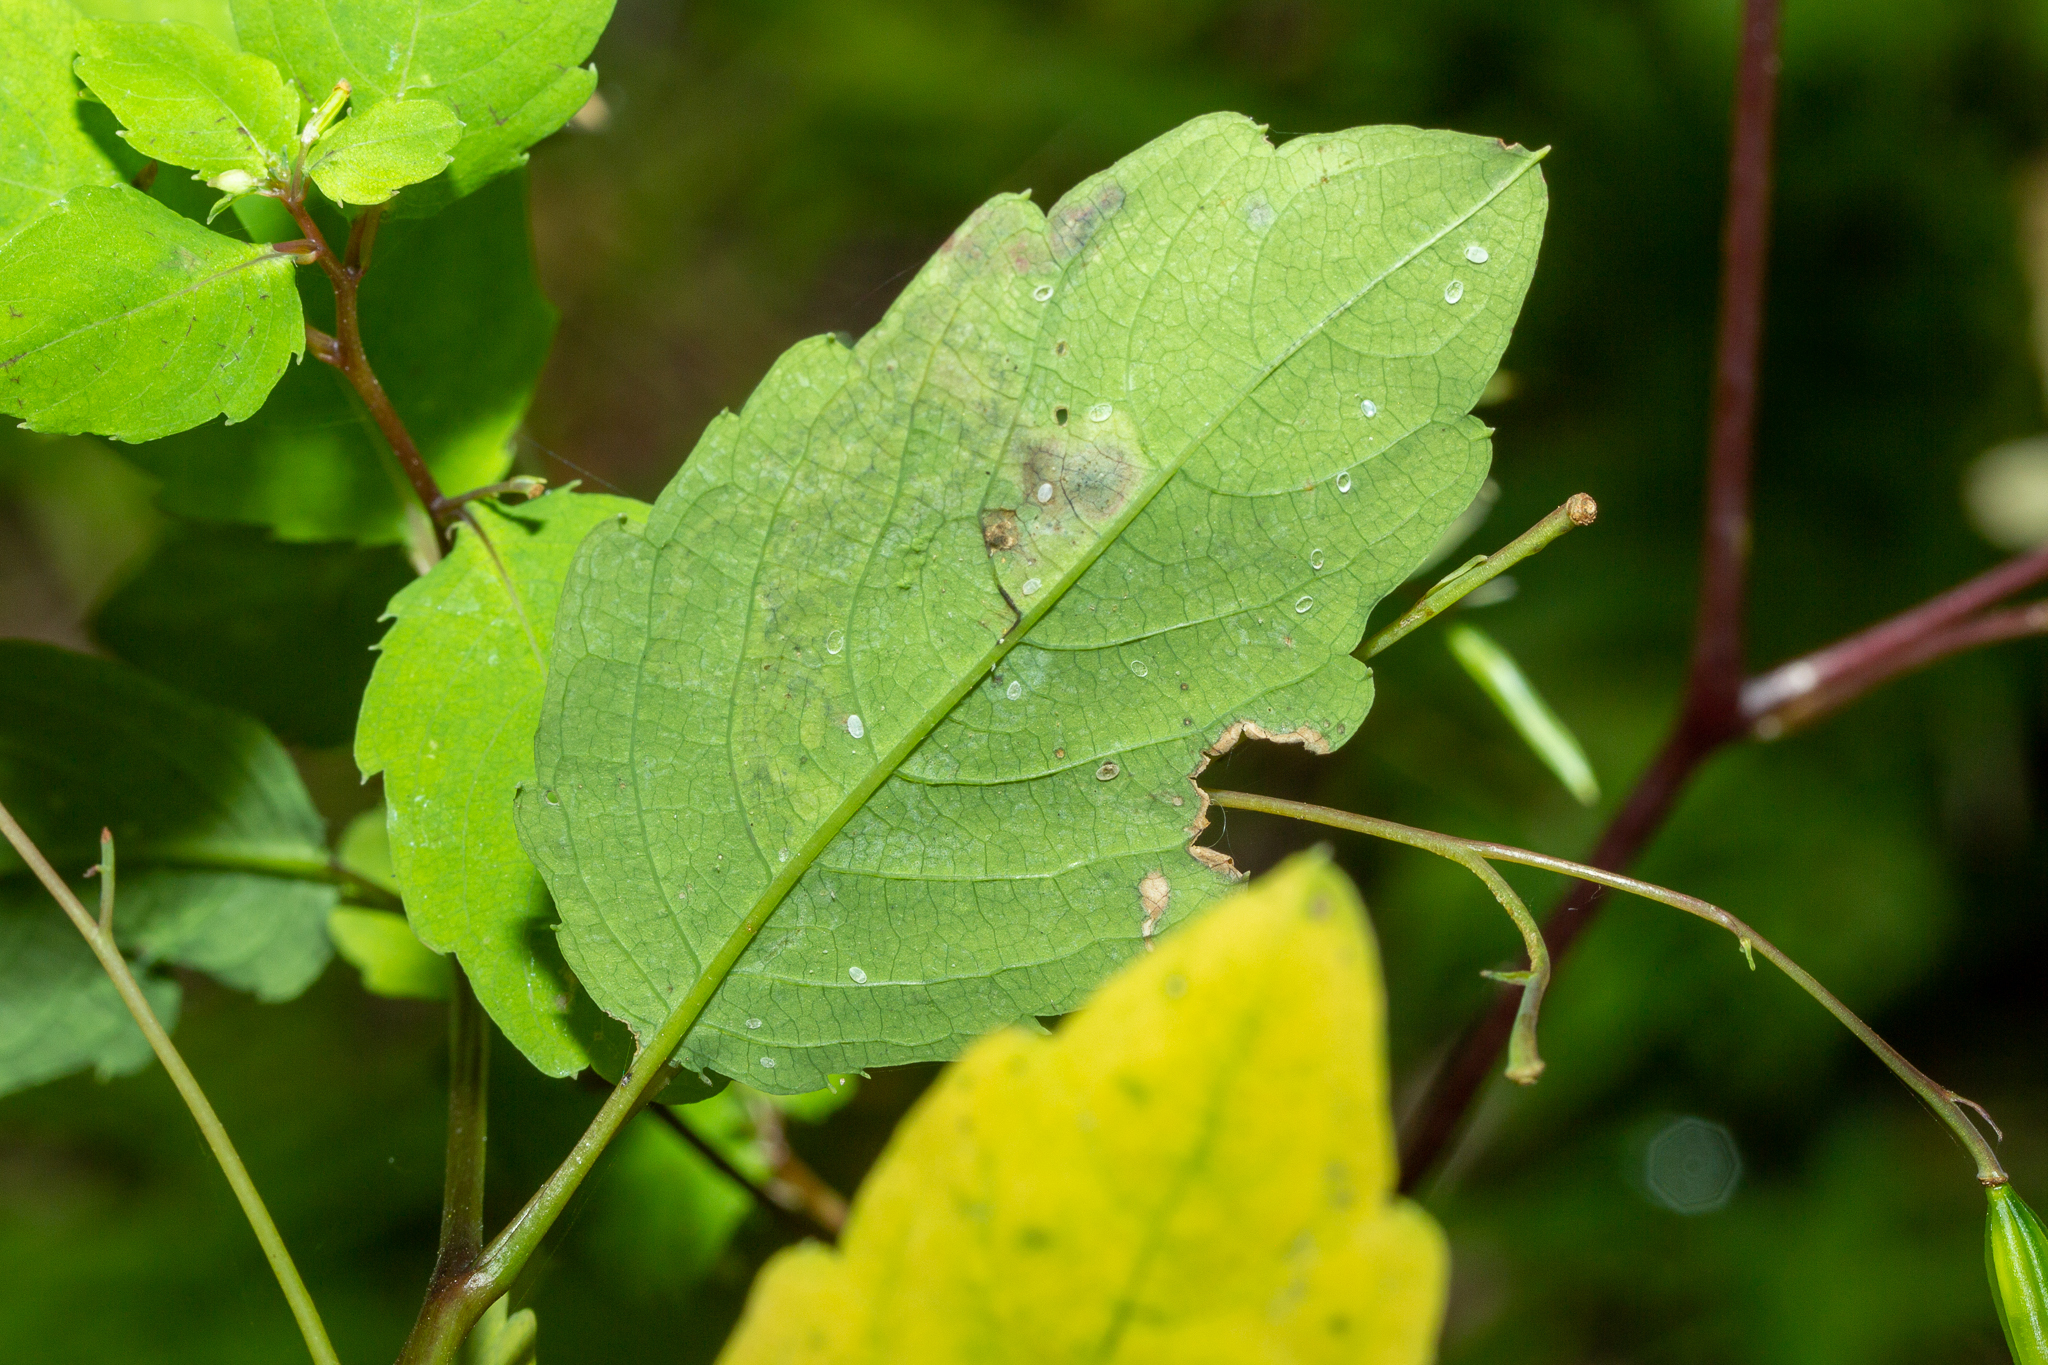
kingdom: Animalia
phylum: Arthropoda
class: Insecta
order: Diptera
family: Agromyzidae
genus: Phytoliriomyza
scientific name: Phytoliriomyza melampyga
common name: Jewelweed leaf-miner fly
